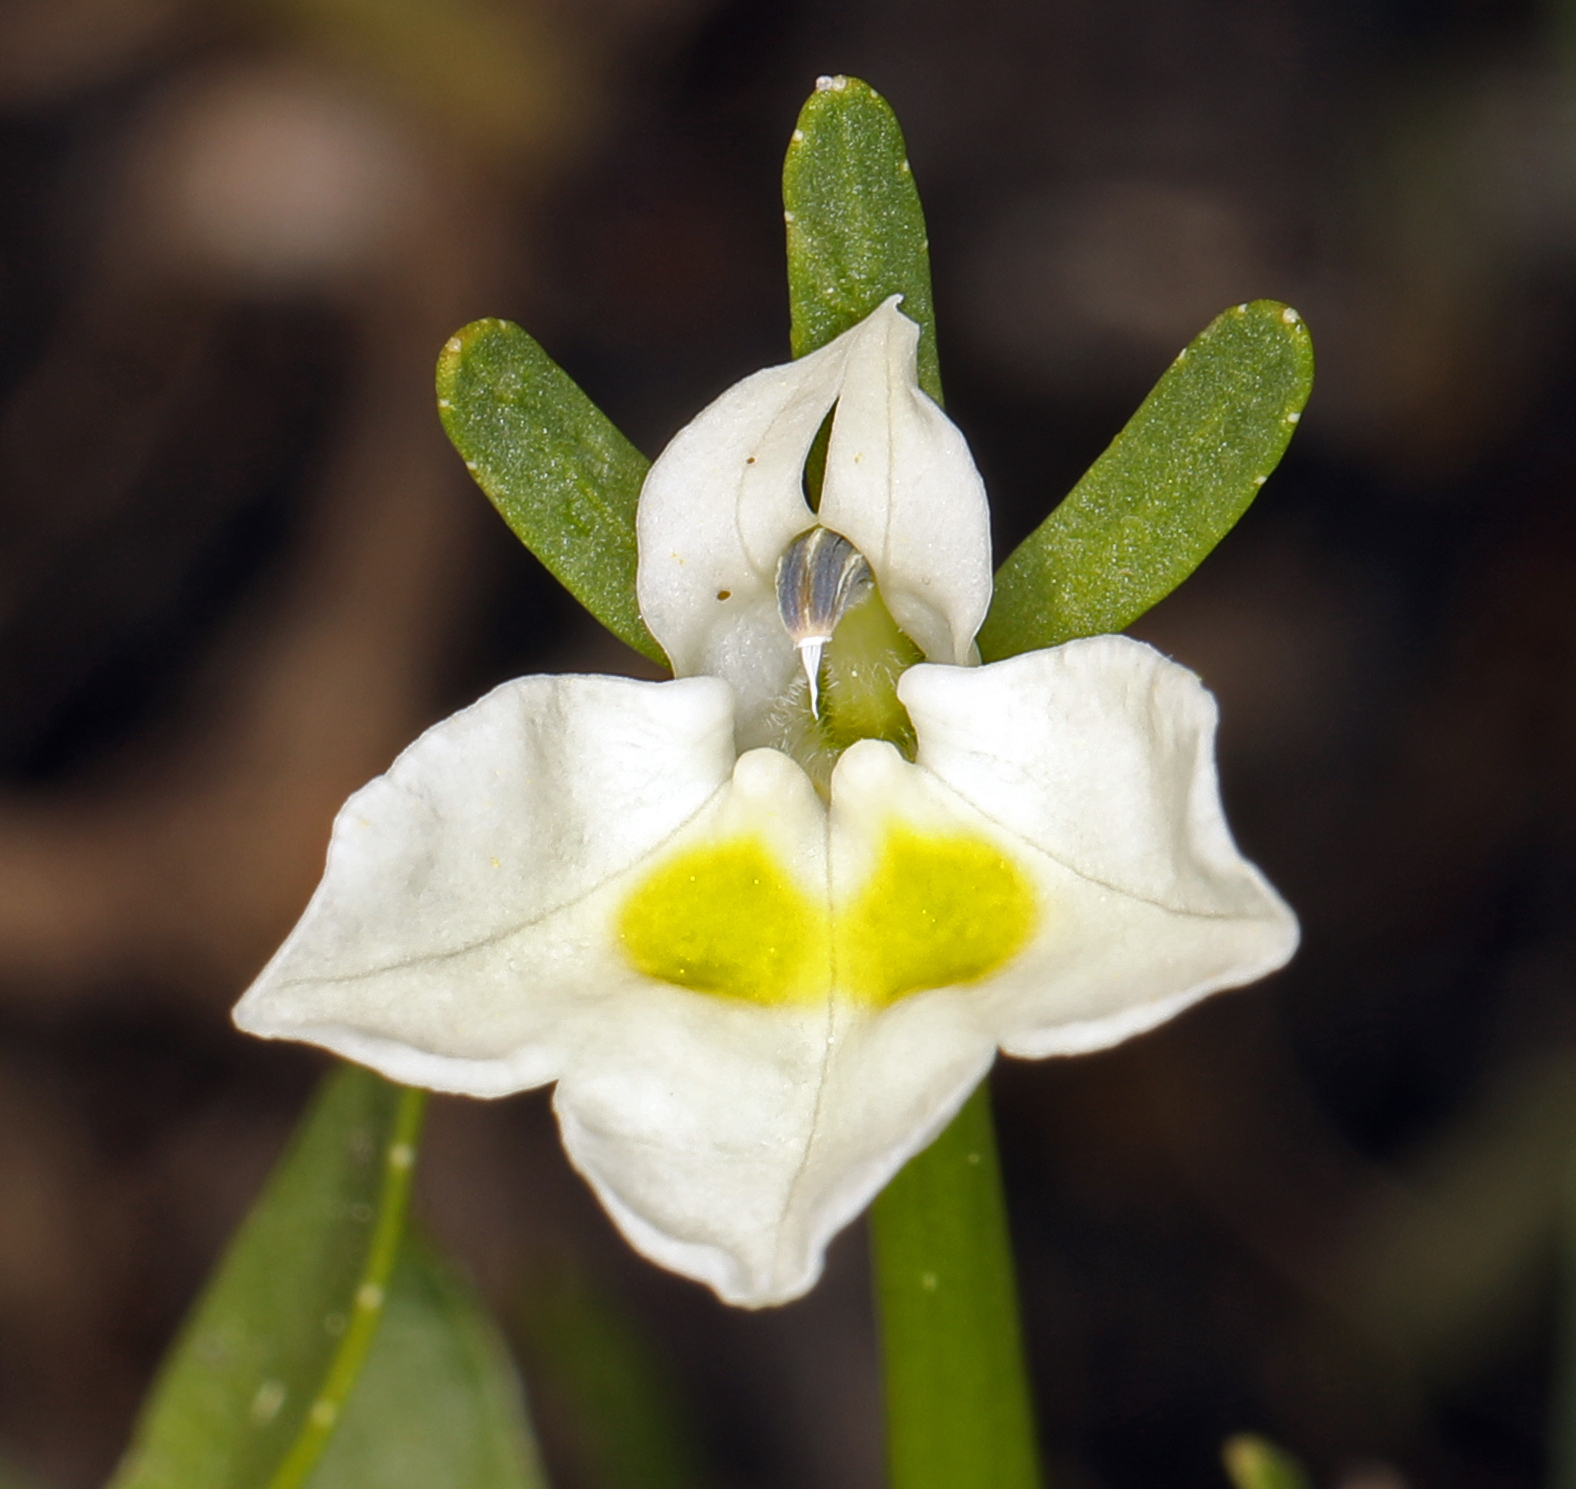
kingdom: Plantae
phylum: Tracheophyta
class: Magnoliopsida
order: Asterales
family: Campanulaceae
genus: Downingia
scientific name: Downingia bicornuta
